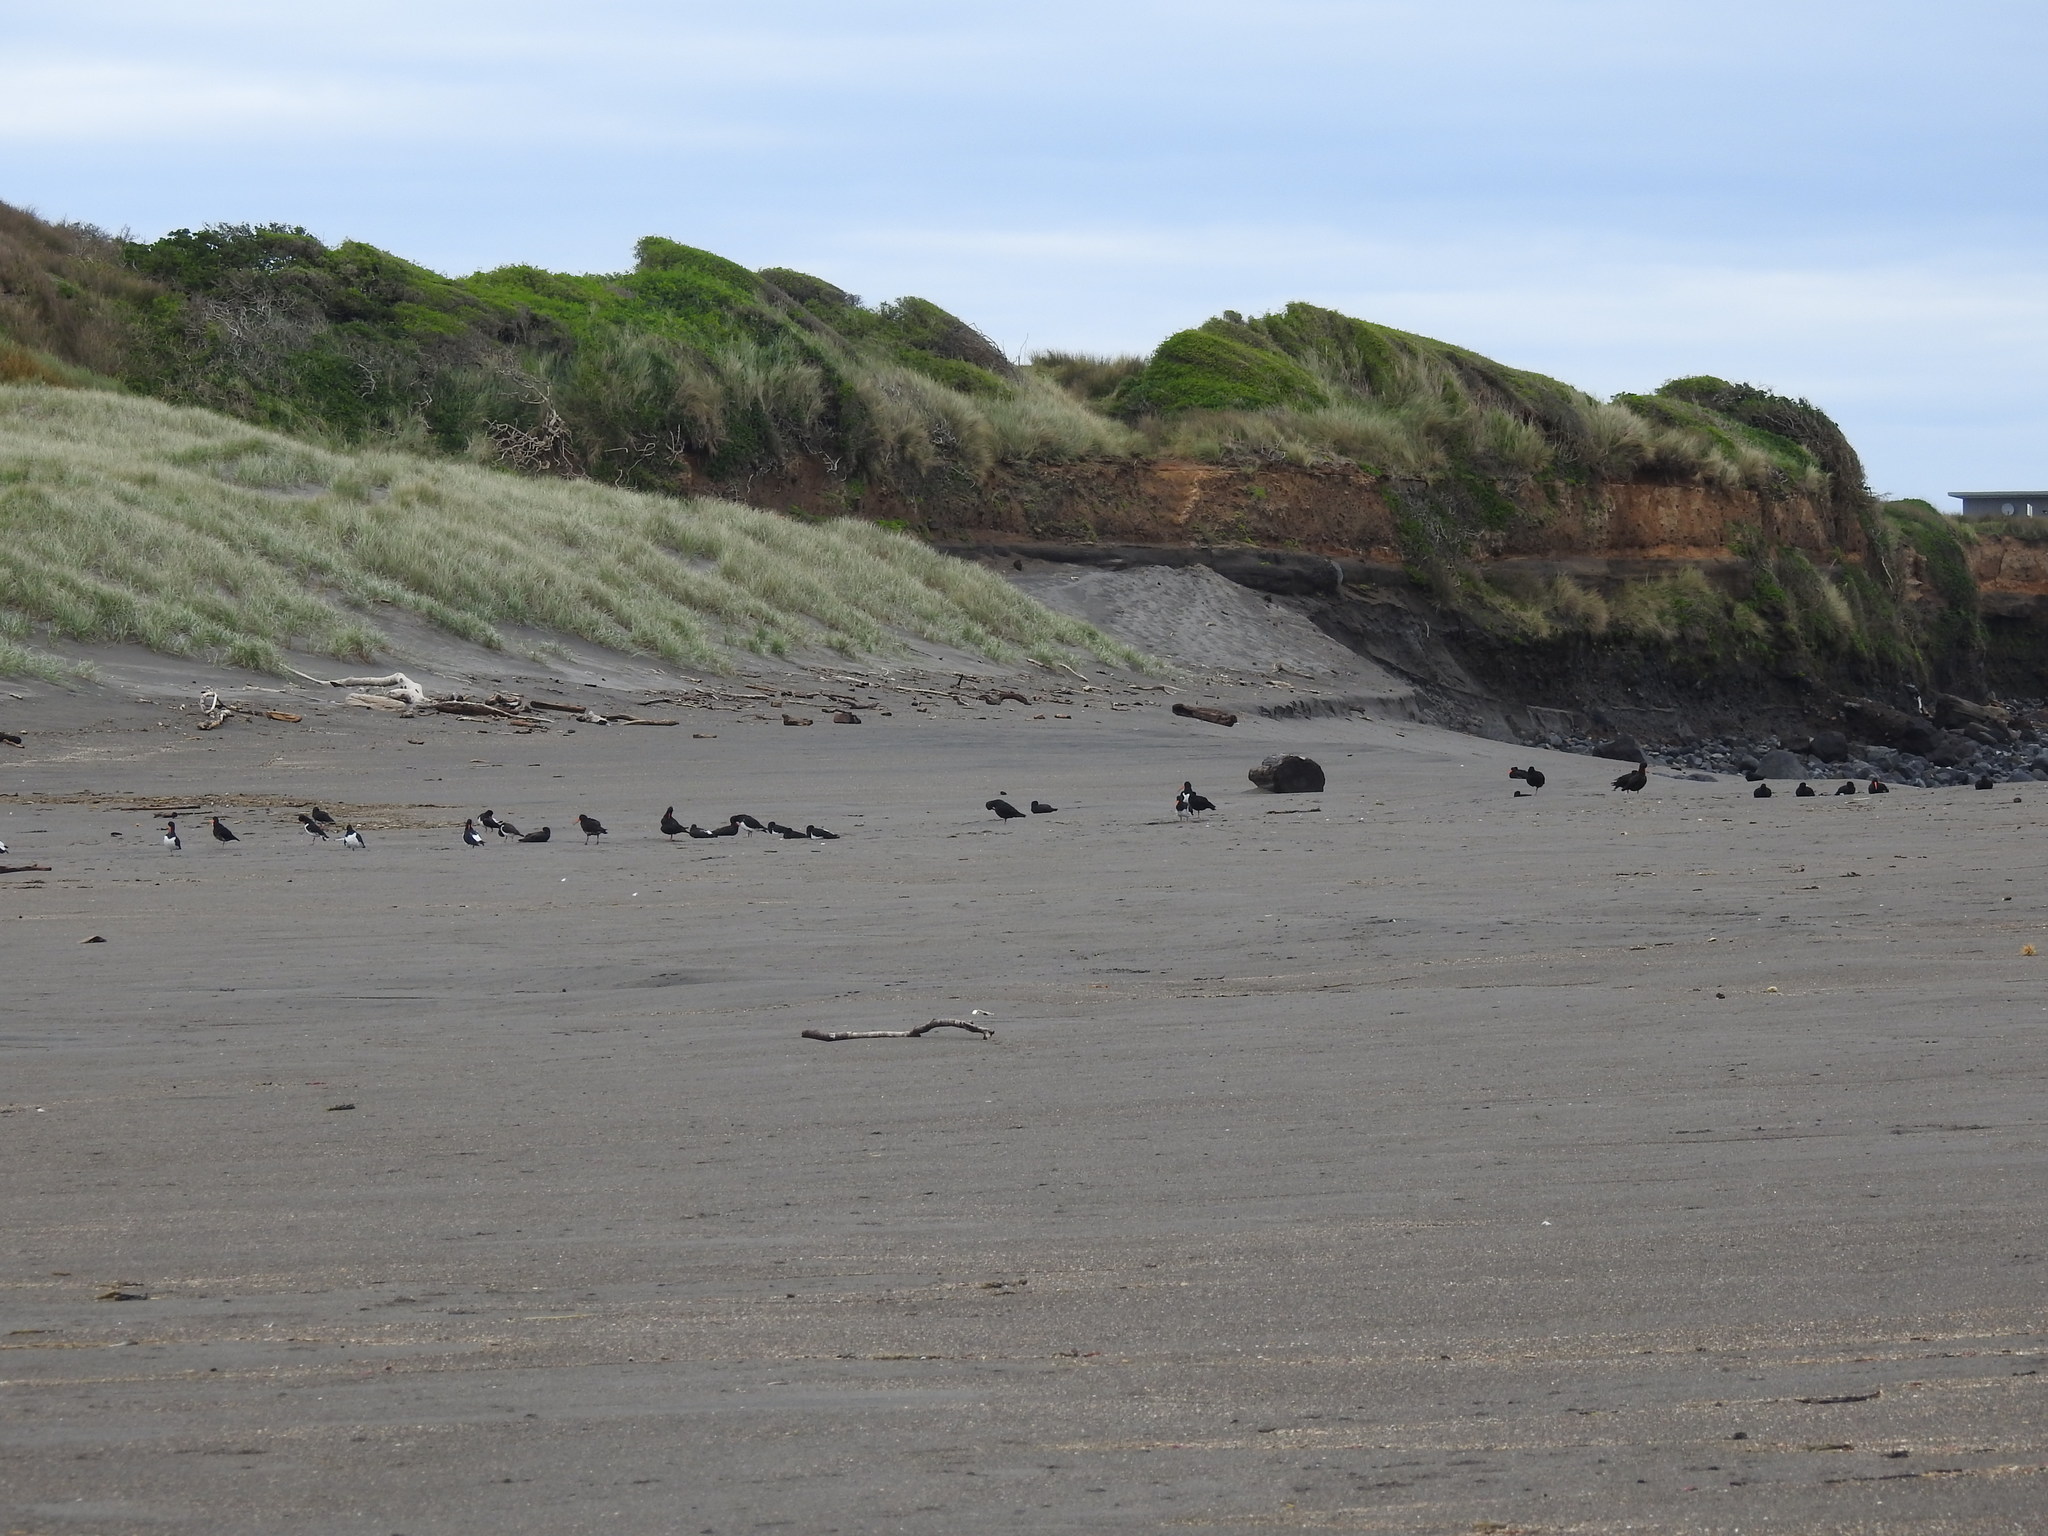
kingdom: Animalia
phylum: Chordata
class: Aves
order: Charadriiformes
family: Haematopodidae
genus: Haematopus
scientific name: Haematopus finschi
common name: South island oystercatcher
